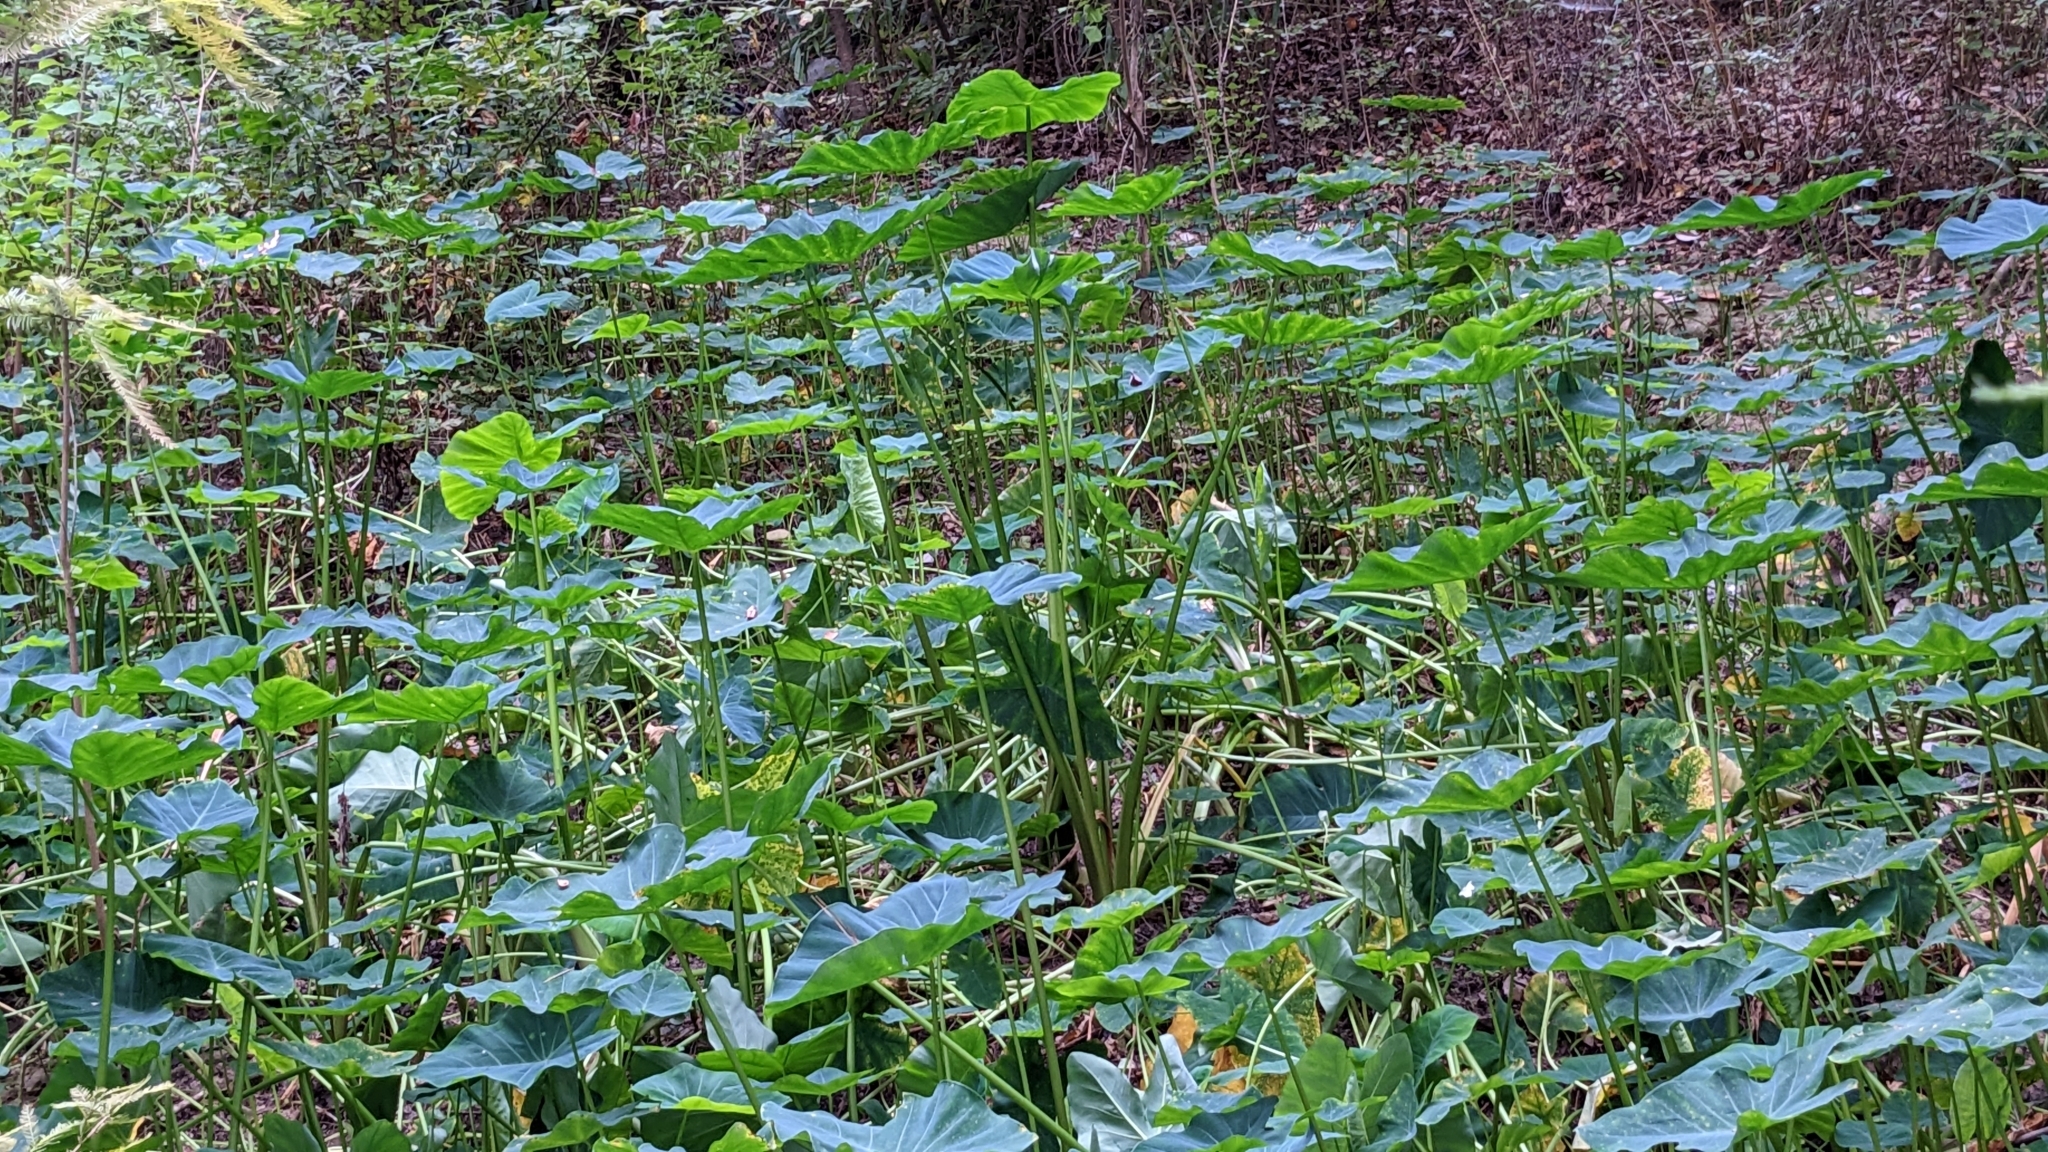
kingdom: Plantae
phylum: Tracheophyta
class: Liliopsida
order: Alismatales
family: Araceae
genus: Colocasia
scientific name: Colocasia esculenta
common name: Taro
